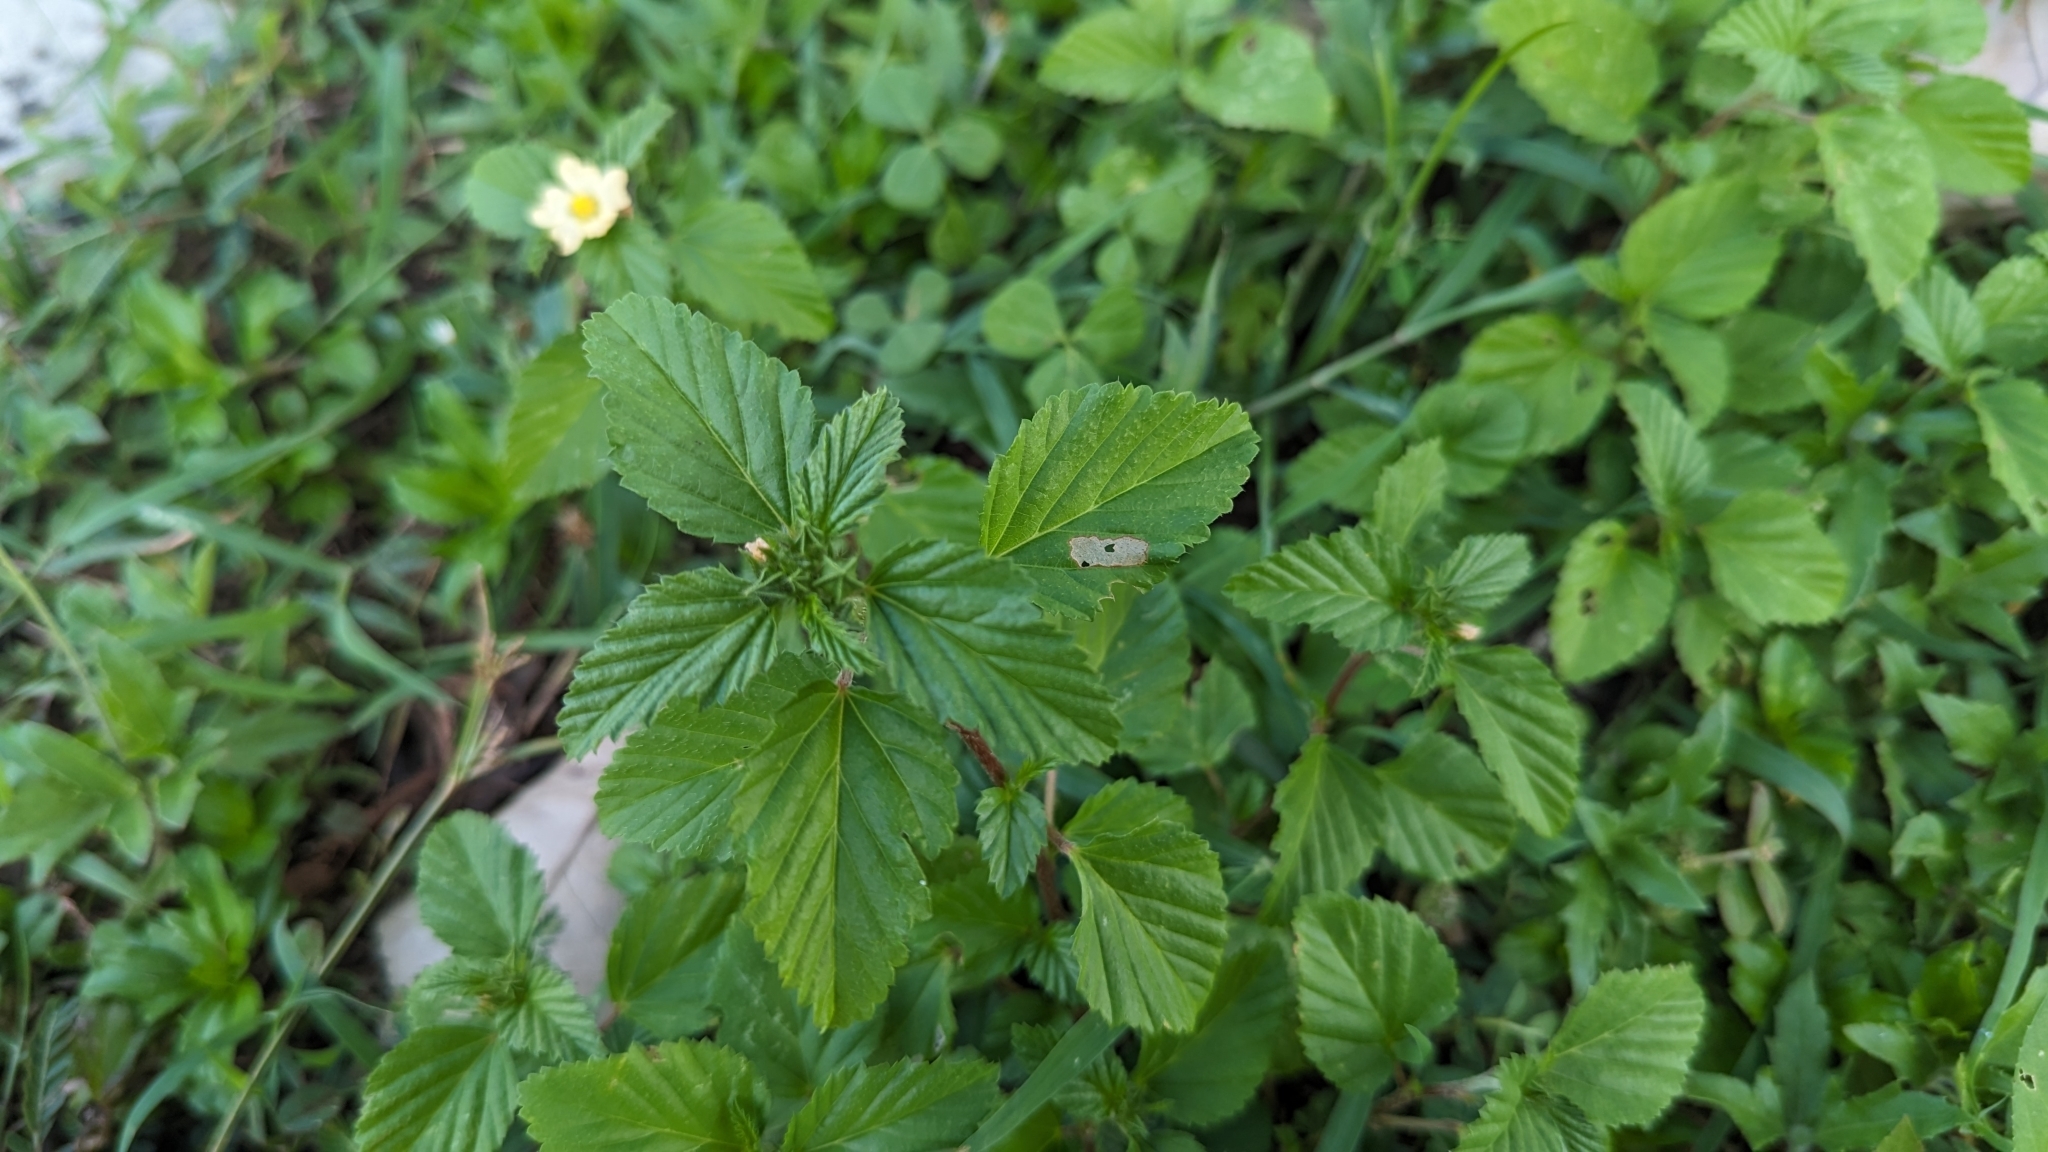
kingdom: Plantae
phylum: Tracheophyta
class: Magnoliopsida
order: Malvales
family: Malvaceae
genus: Malvastrum
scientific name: Malvastrum coromandelianum
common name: Threelobe false mallow
